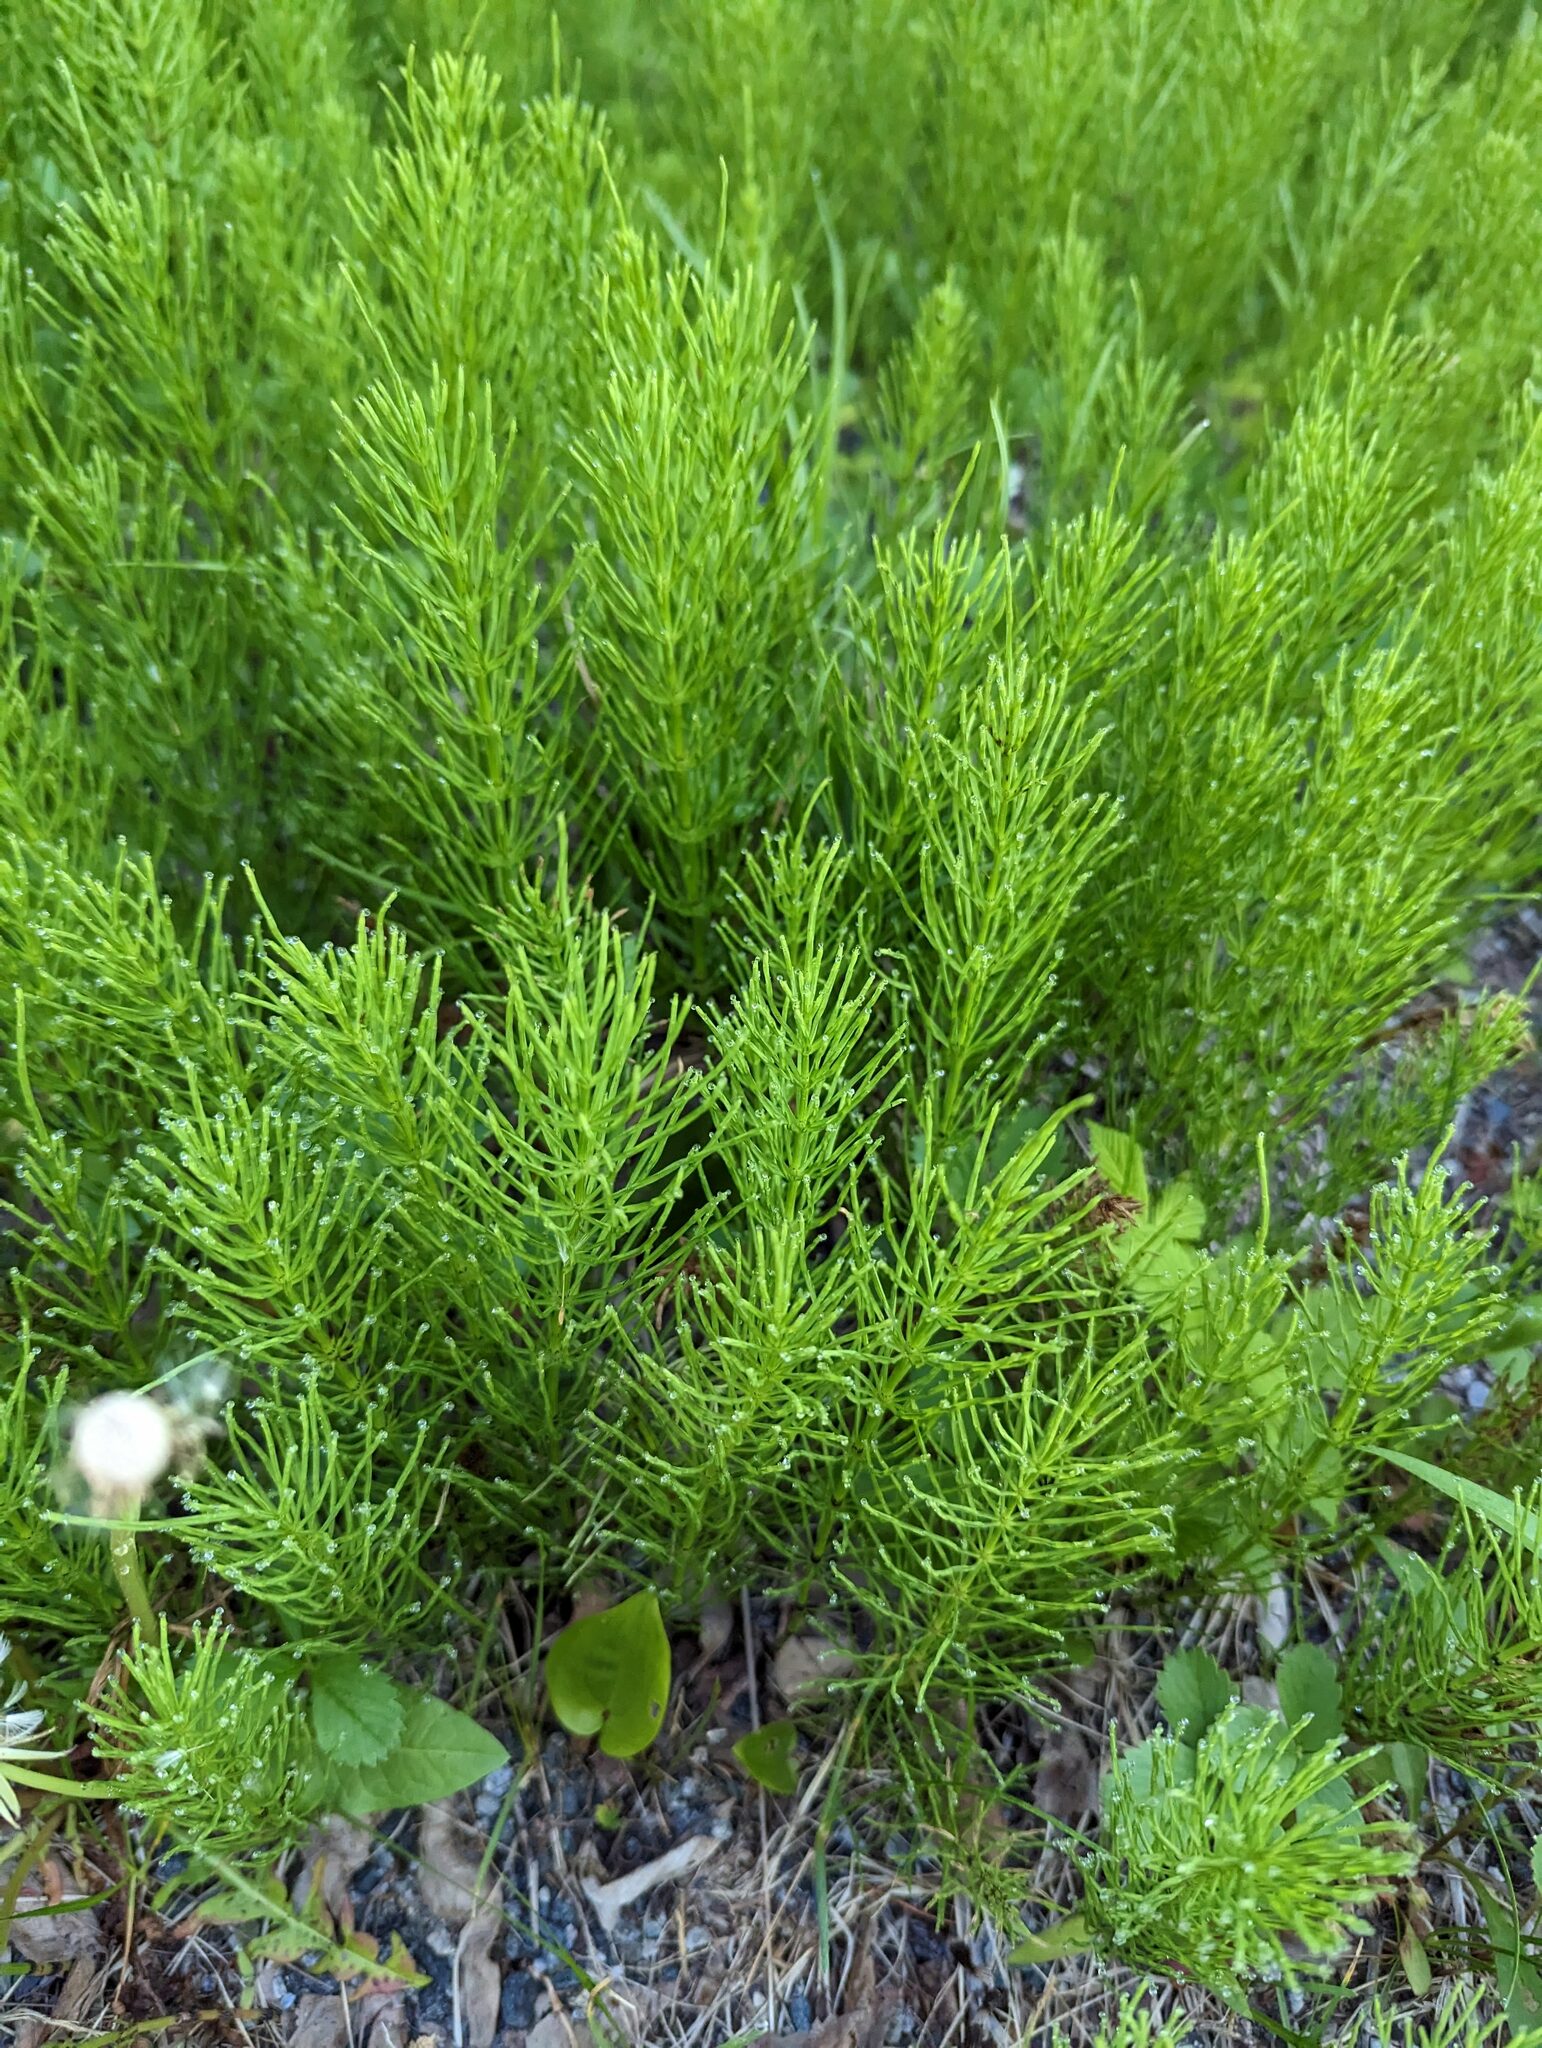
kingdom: Plantae
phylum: Tracheophyta
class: Polypodiopsida
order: Equisetales
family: Equisetaceae
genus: Equisetum
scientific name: Equisetum arvense
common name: Field horsetail
